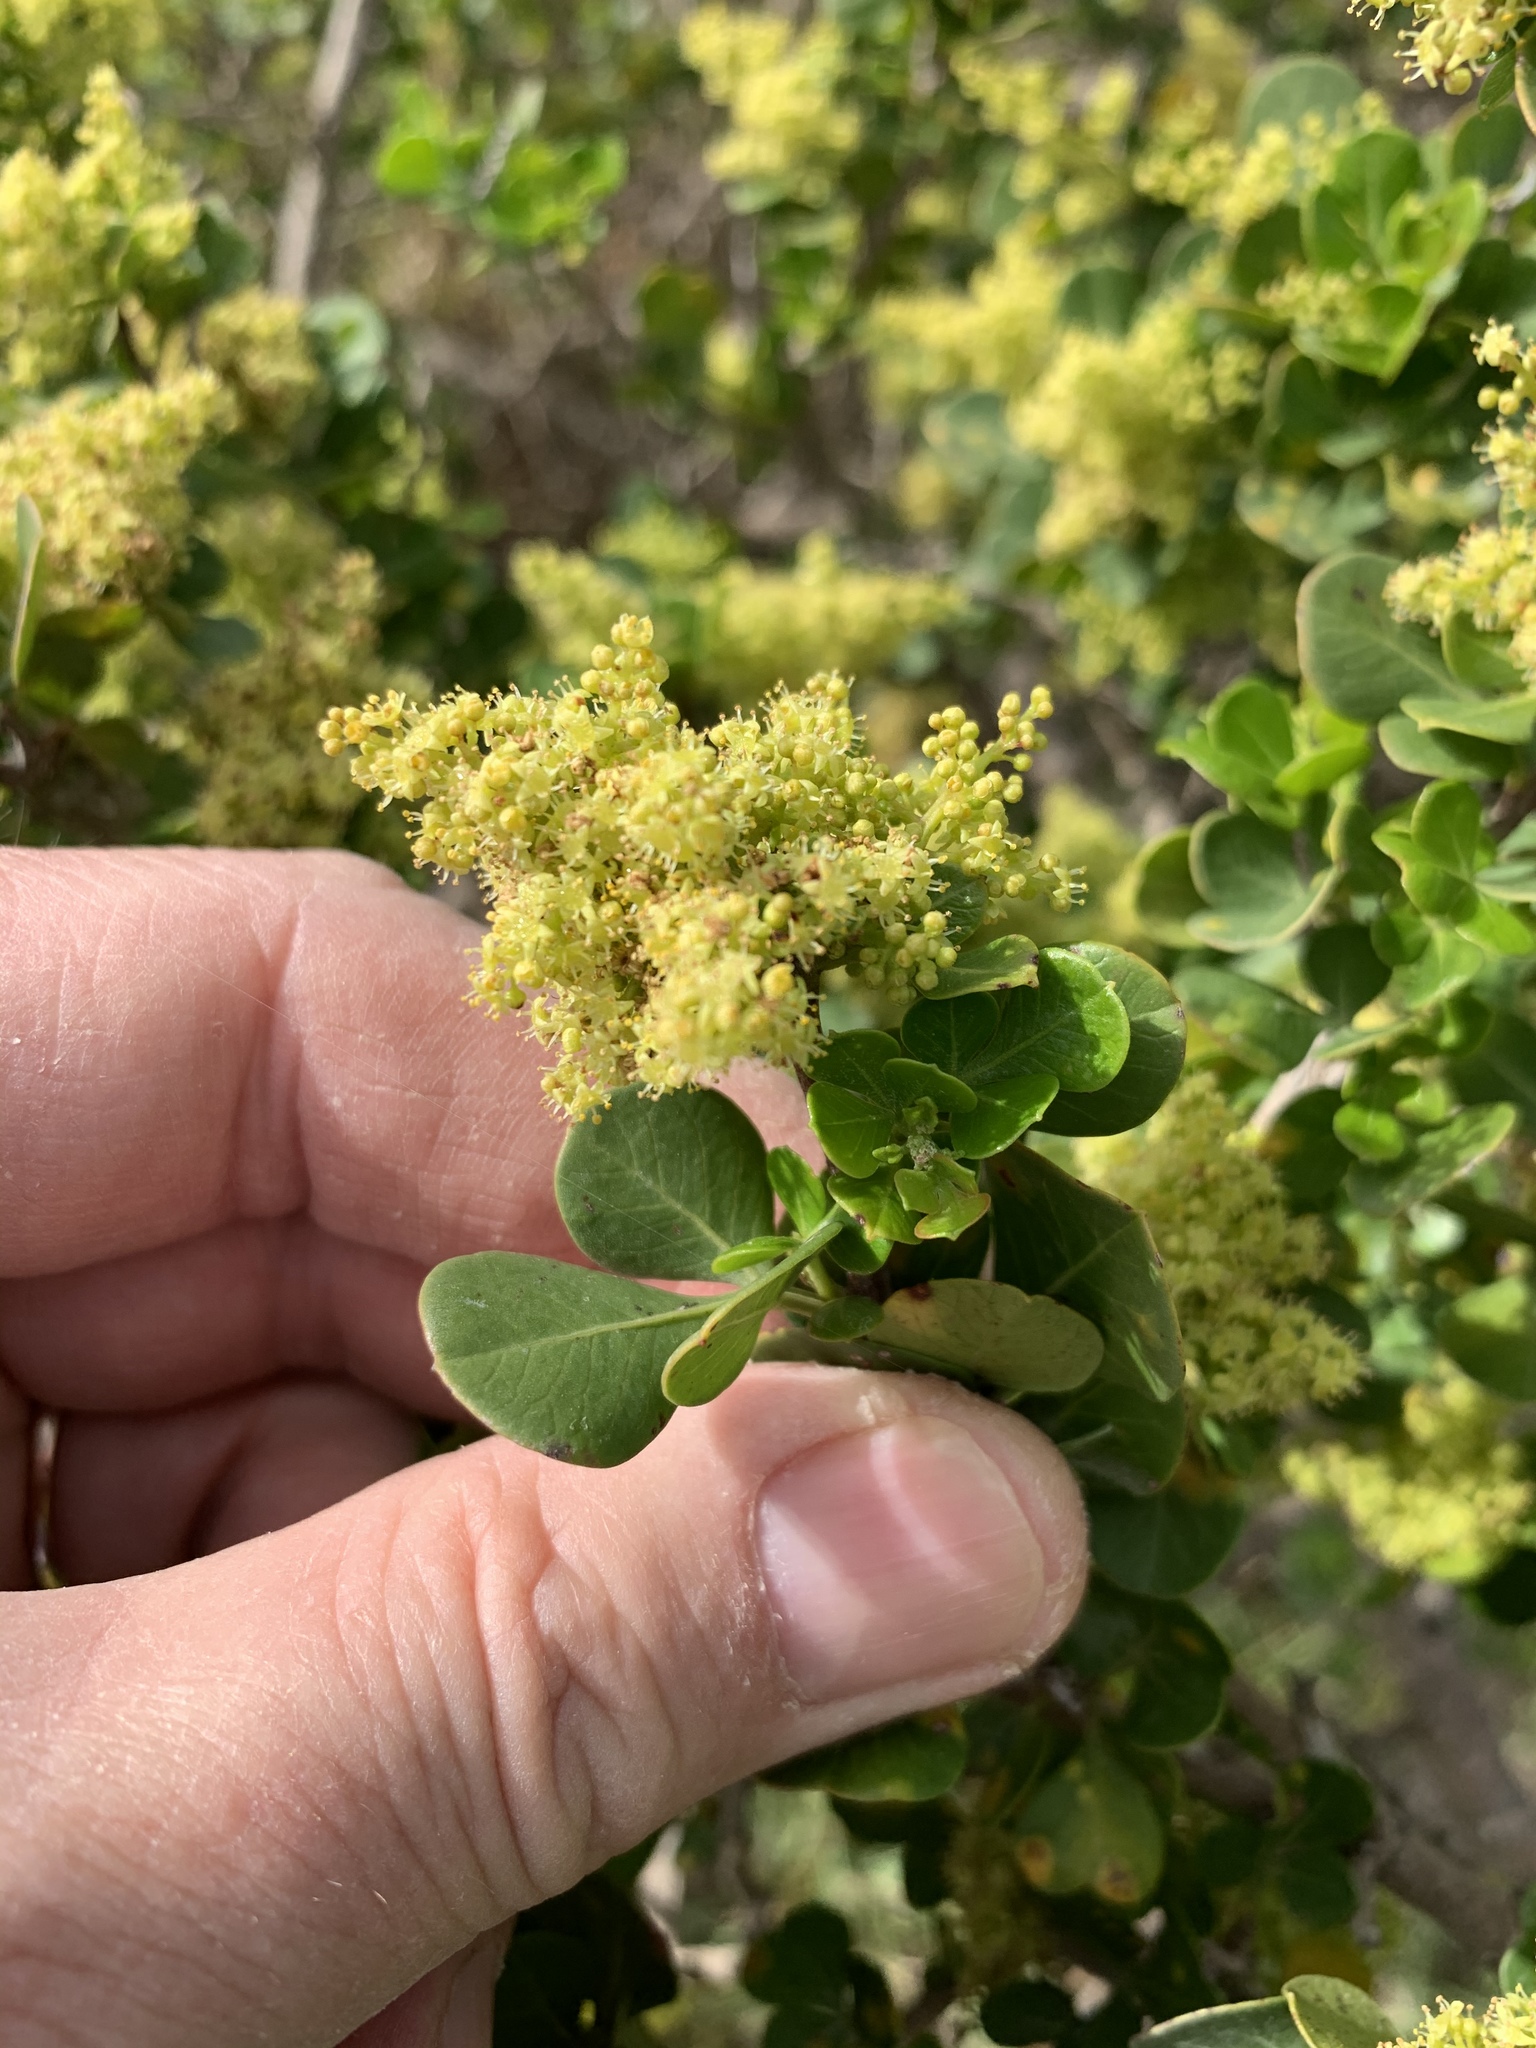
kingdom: Plantae
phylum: Tracheophyta
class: Magnoliopsida
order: Sapindales
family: Anacardiaceae
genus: Searsia
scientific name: Searsia glauca
